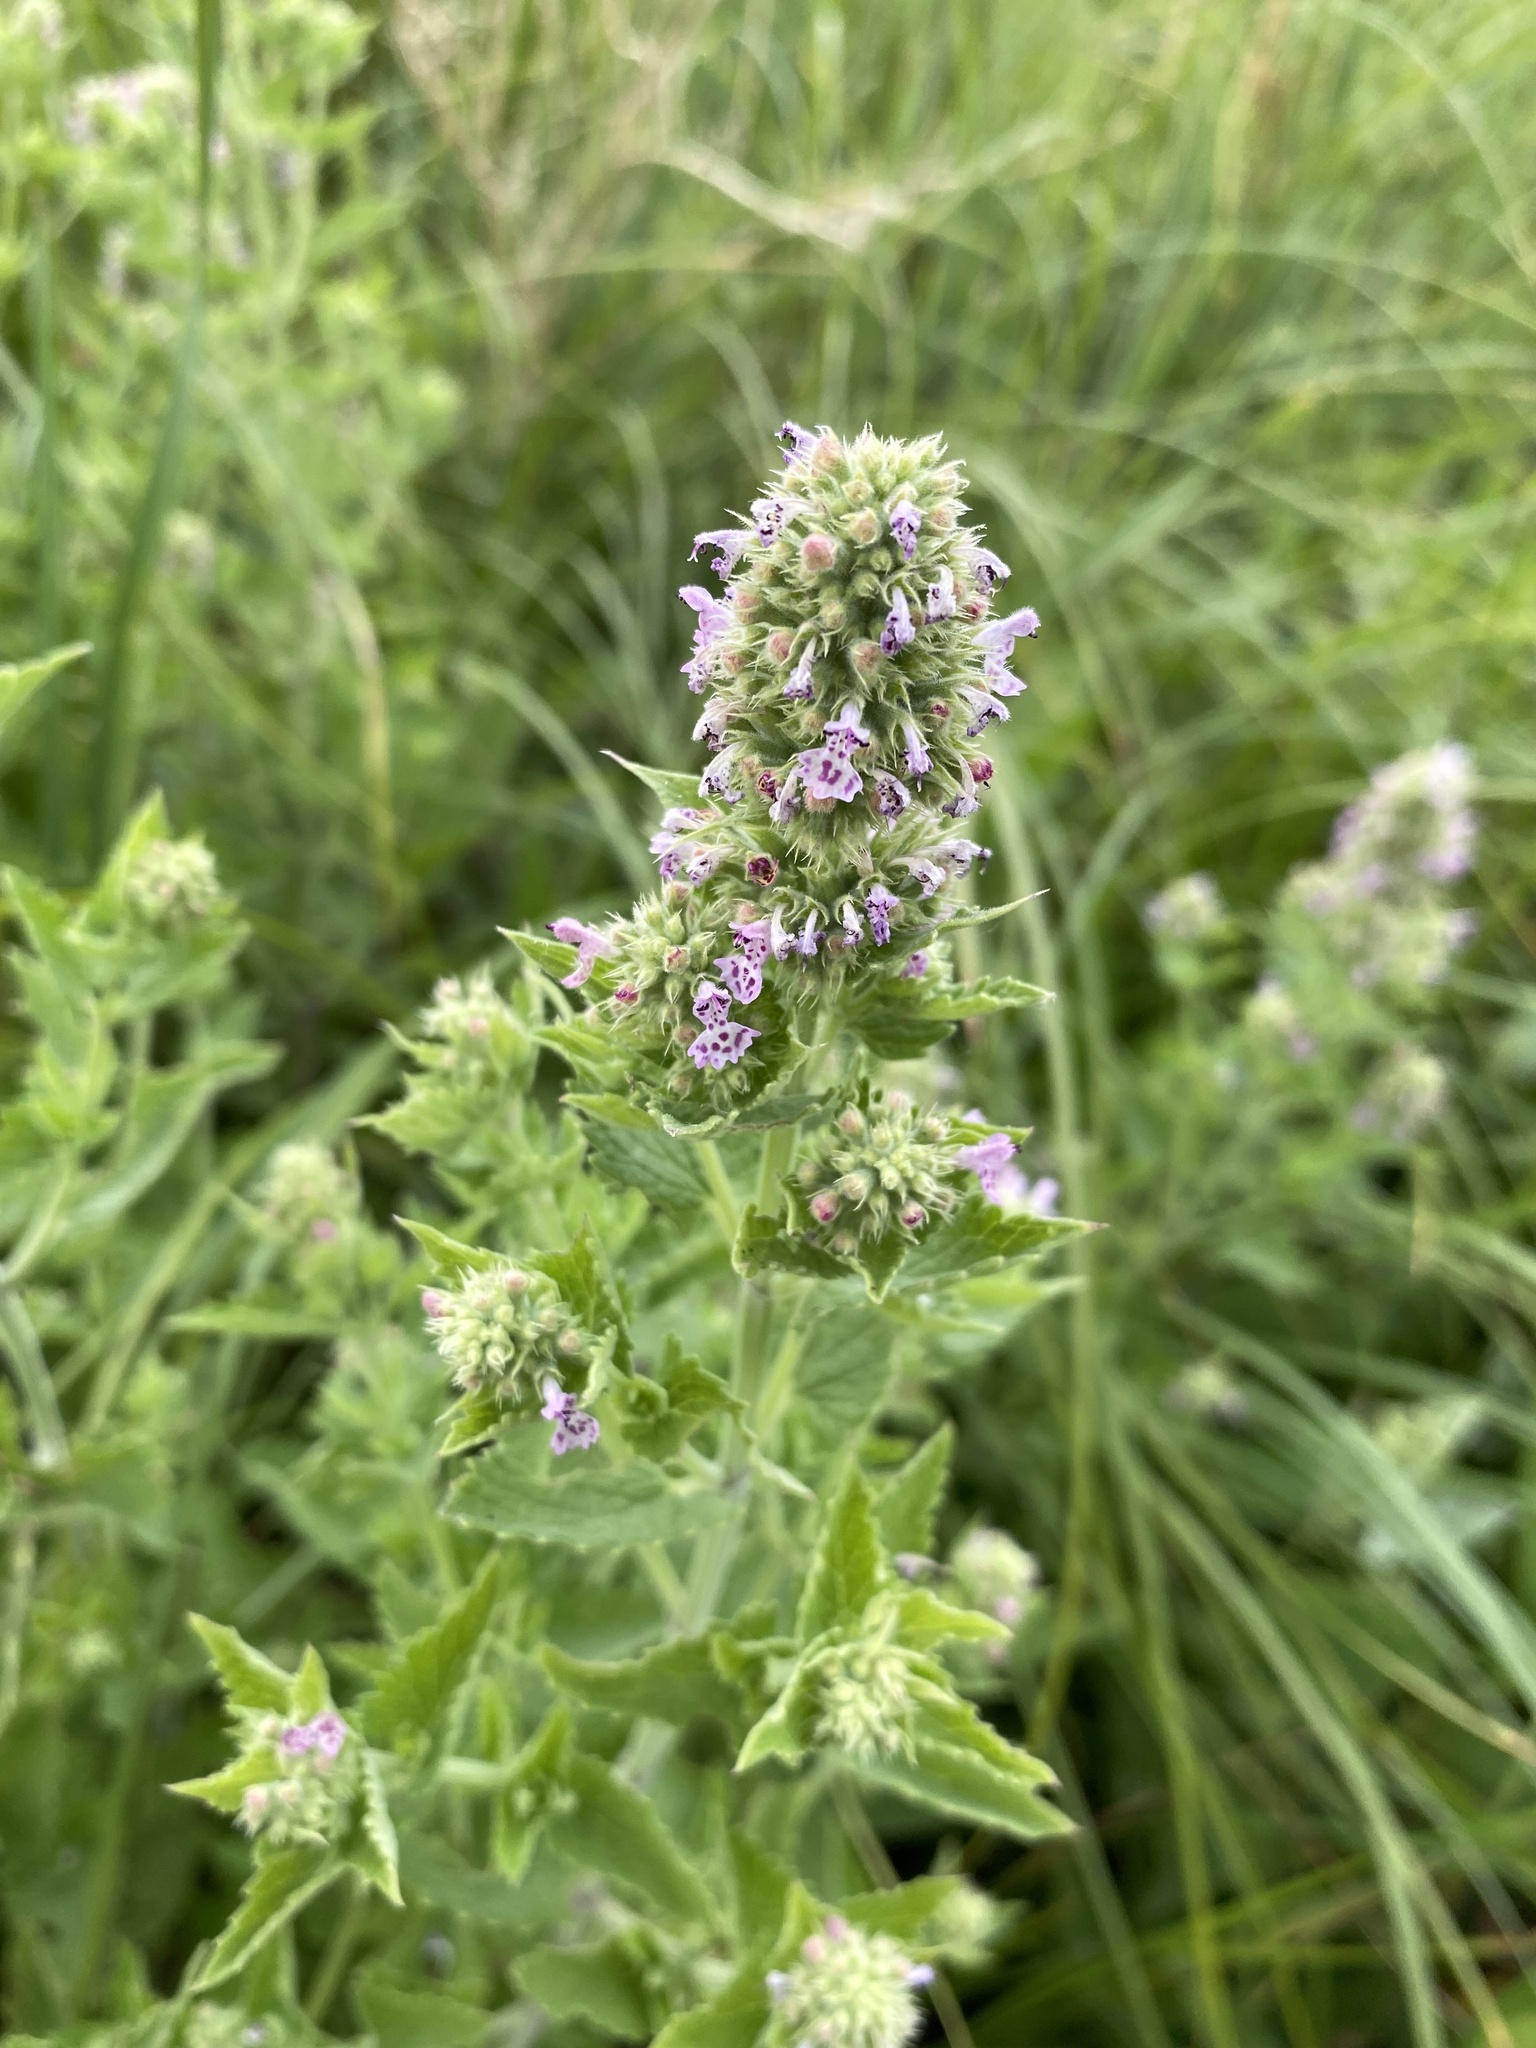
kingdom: Plantae
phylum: Tracheophyta
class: Magnoliopsida
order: Lamiales
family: Lamiaceae
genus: Nepeta
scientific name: Nepeta cataria
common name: Catnip
